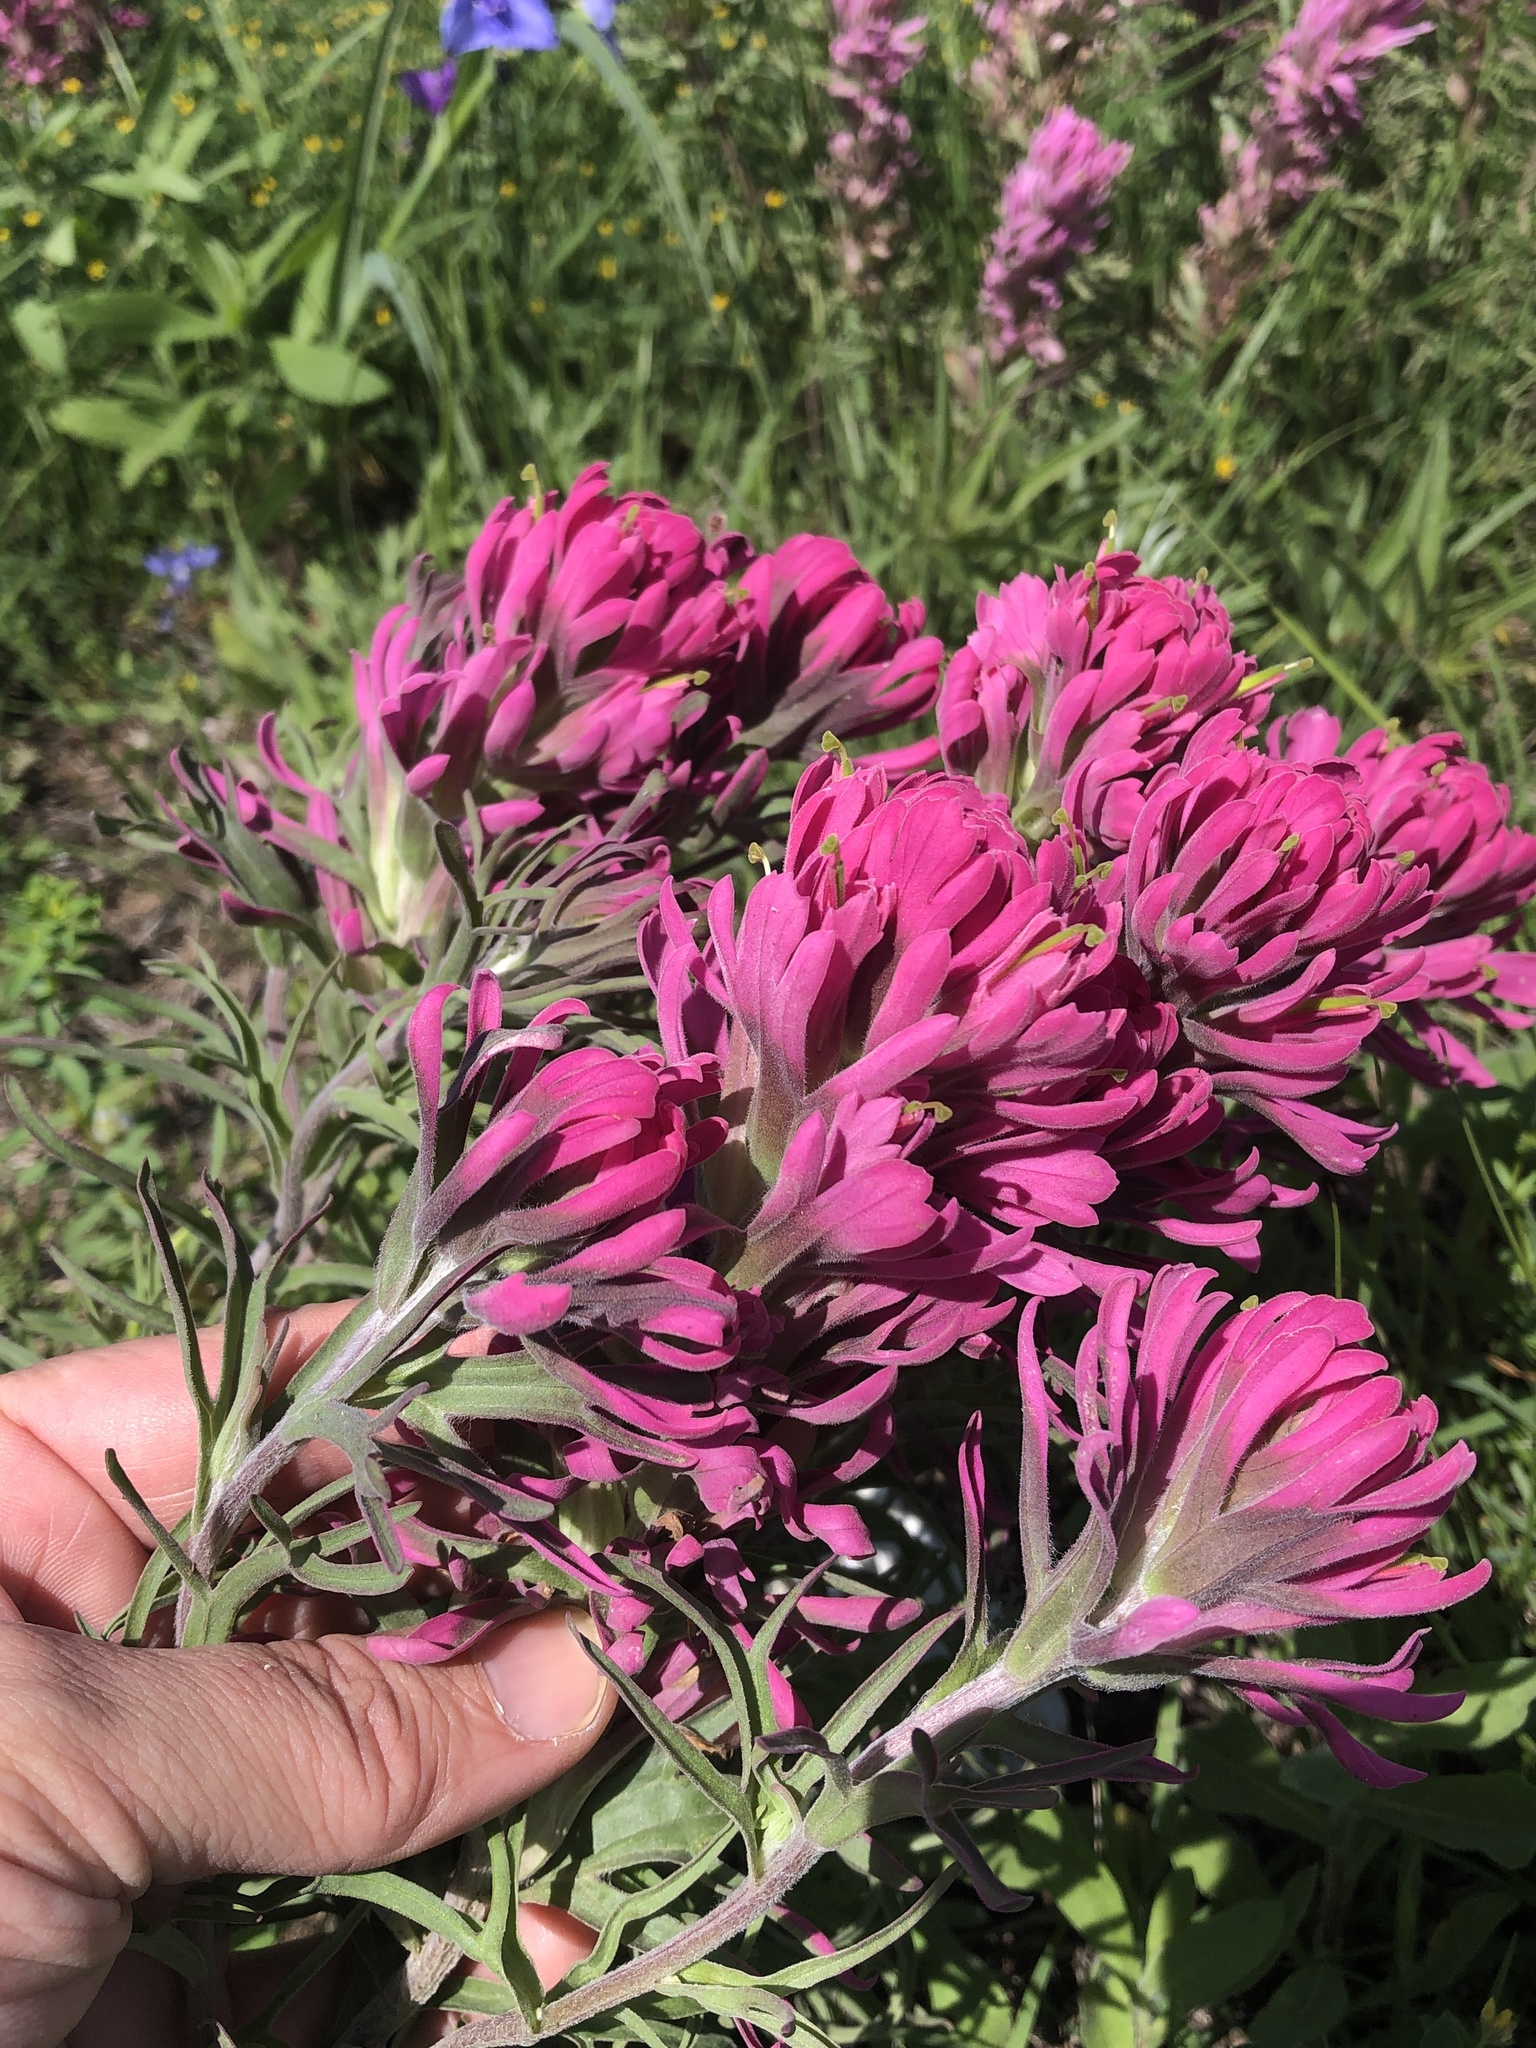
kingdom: Plantae
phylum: Tracheophyta
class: Magnoliopsida
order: Lamiales
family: Orobanchaceae
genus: Castilleja
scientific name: Castilleja purpurea
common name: Plains paintbrush
